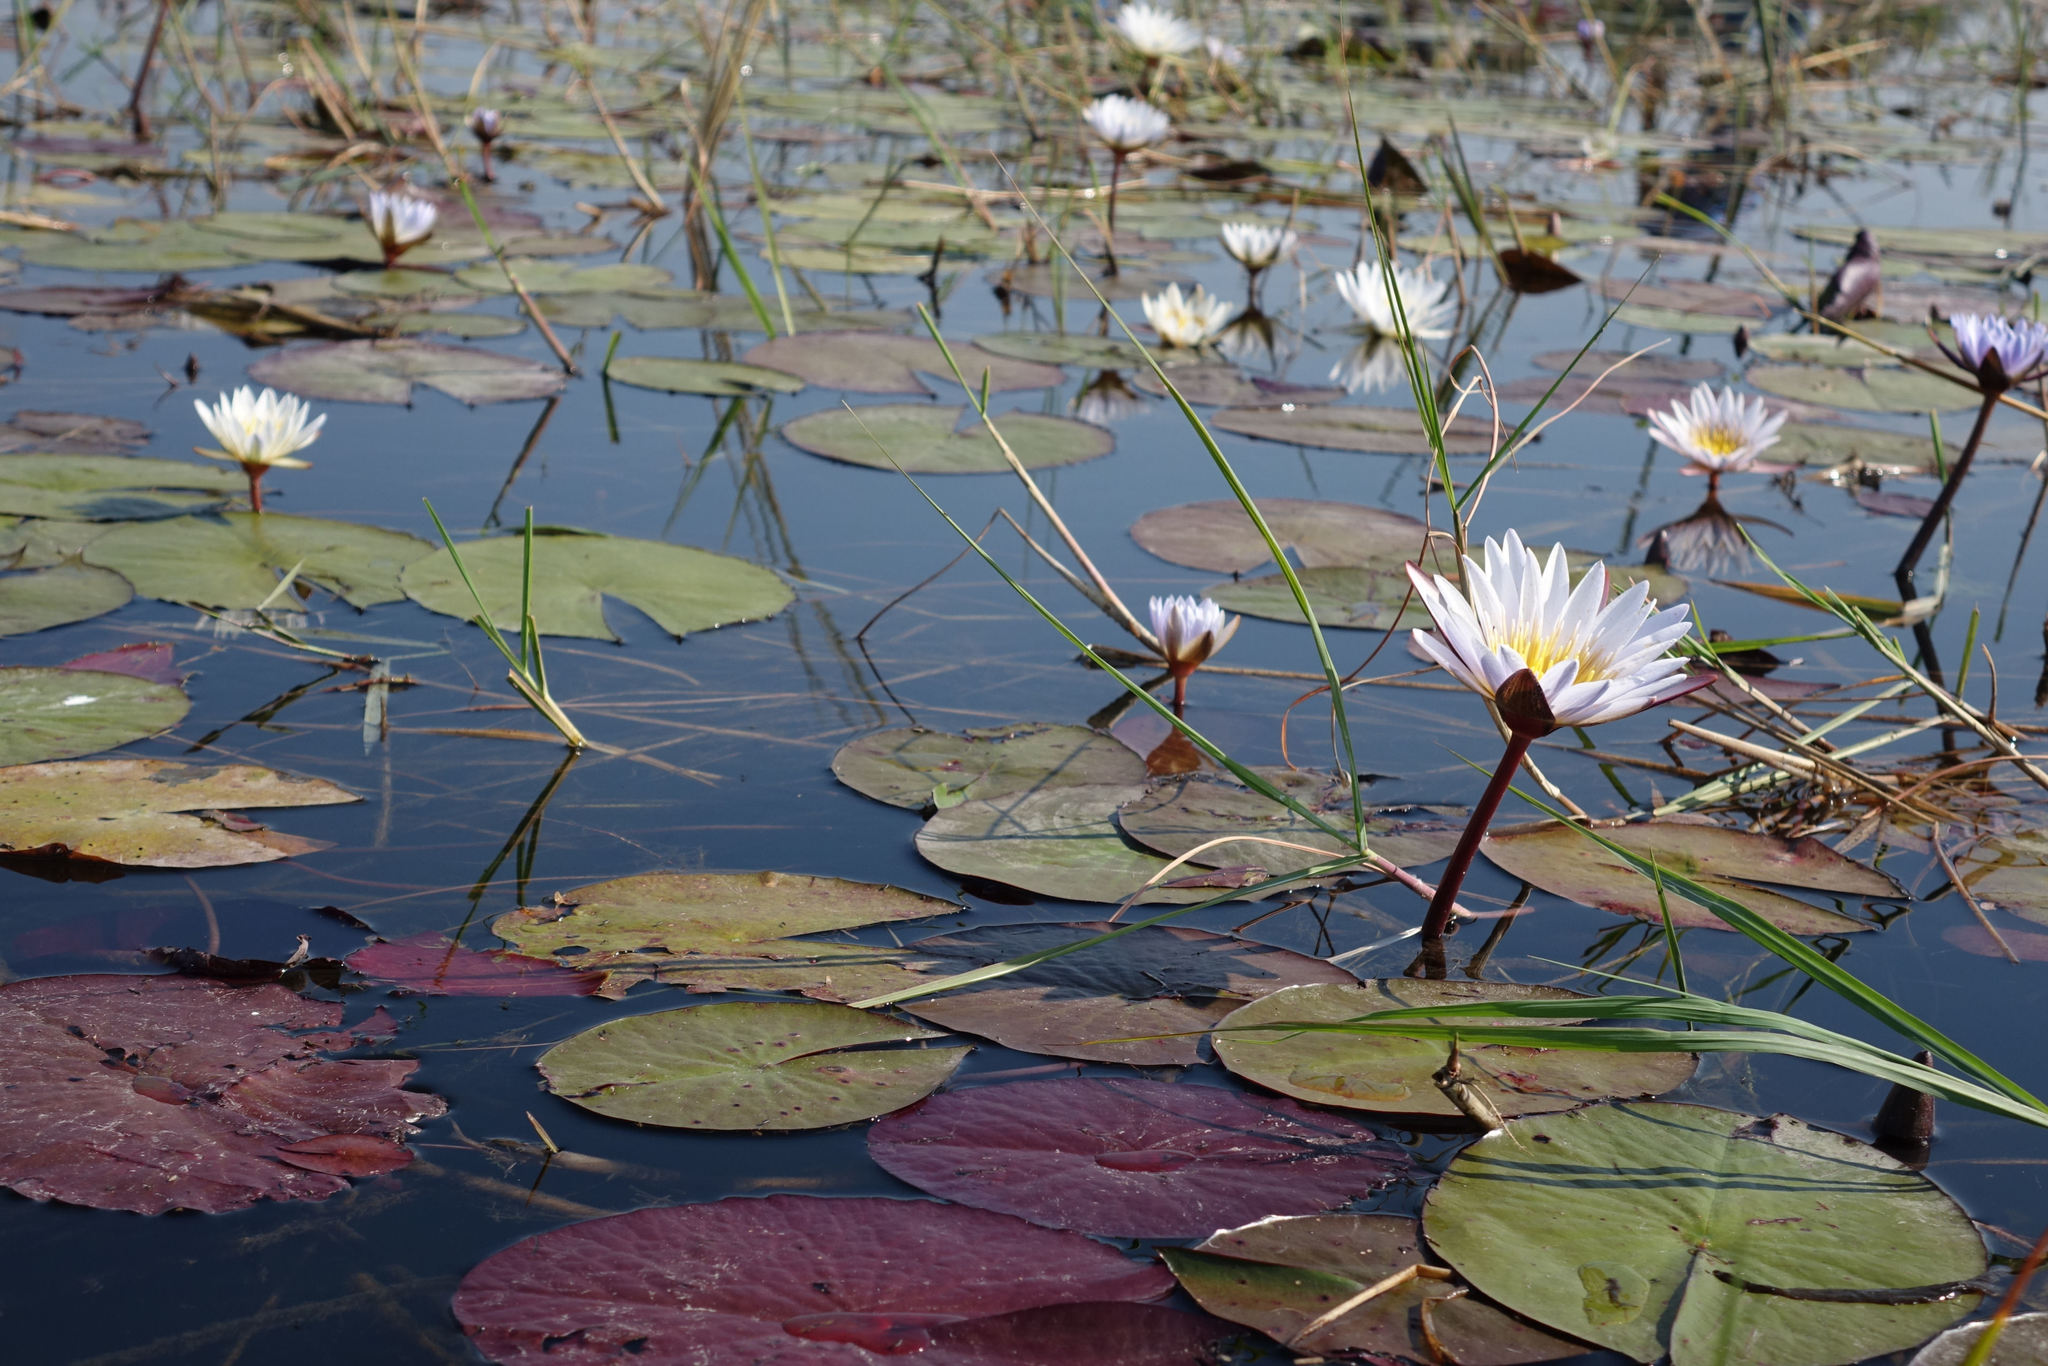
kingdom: Plantae
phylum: Tracheophyta
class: Magnoliopsida
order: Nymphaeales
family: Nymphaeaceae
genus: Nymphaea
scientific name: Nymphaea nouchali
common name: Blue lotus
